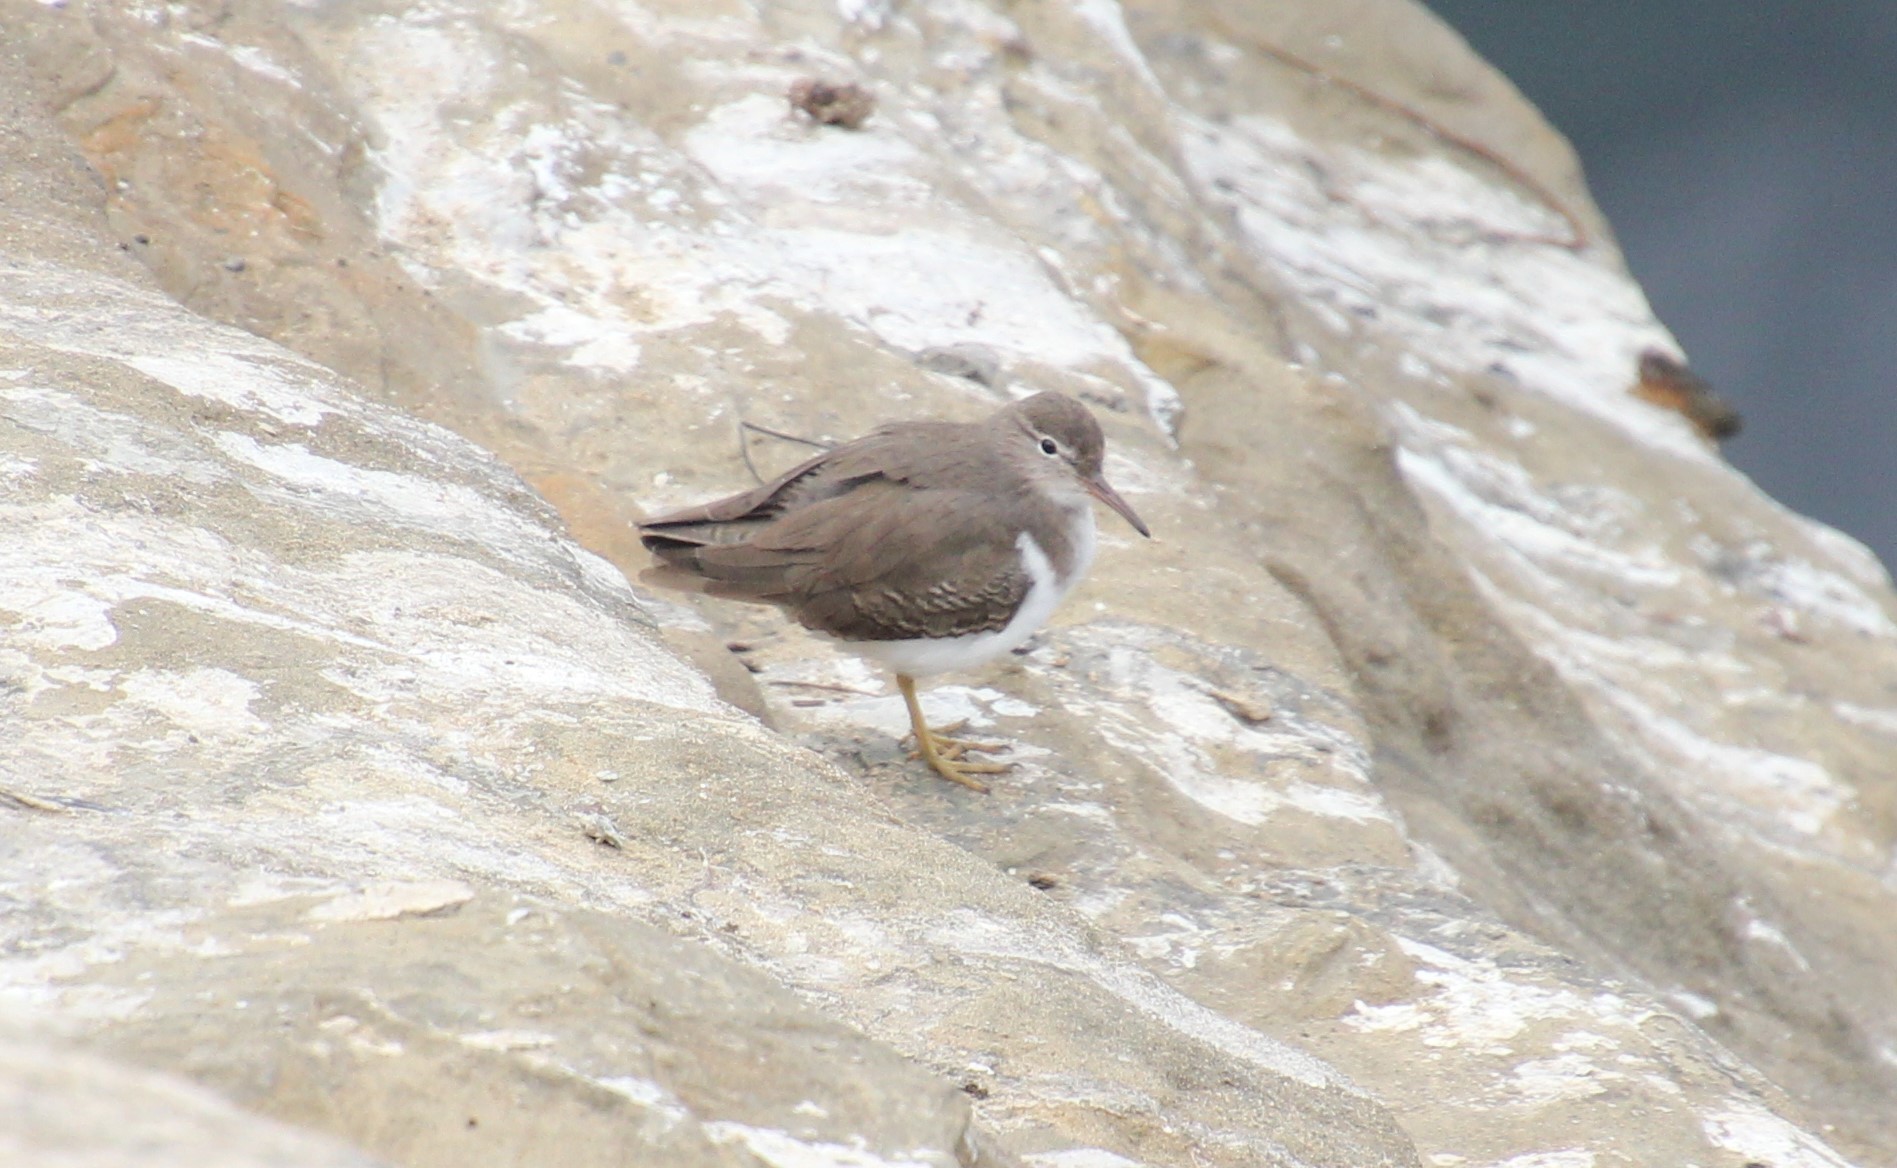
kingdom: Animalia
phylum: Chordata
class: Aves
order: Charadriiformes
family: Scolopacidae
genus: Actitis
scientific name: Actitis macularius
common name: Spotted sandpiper
